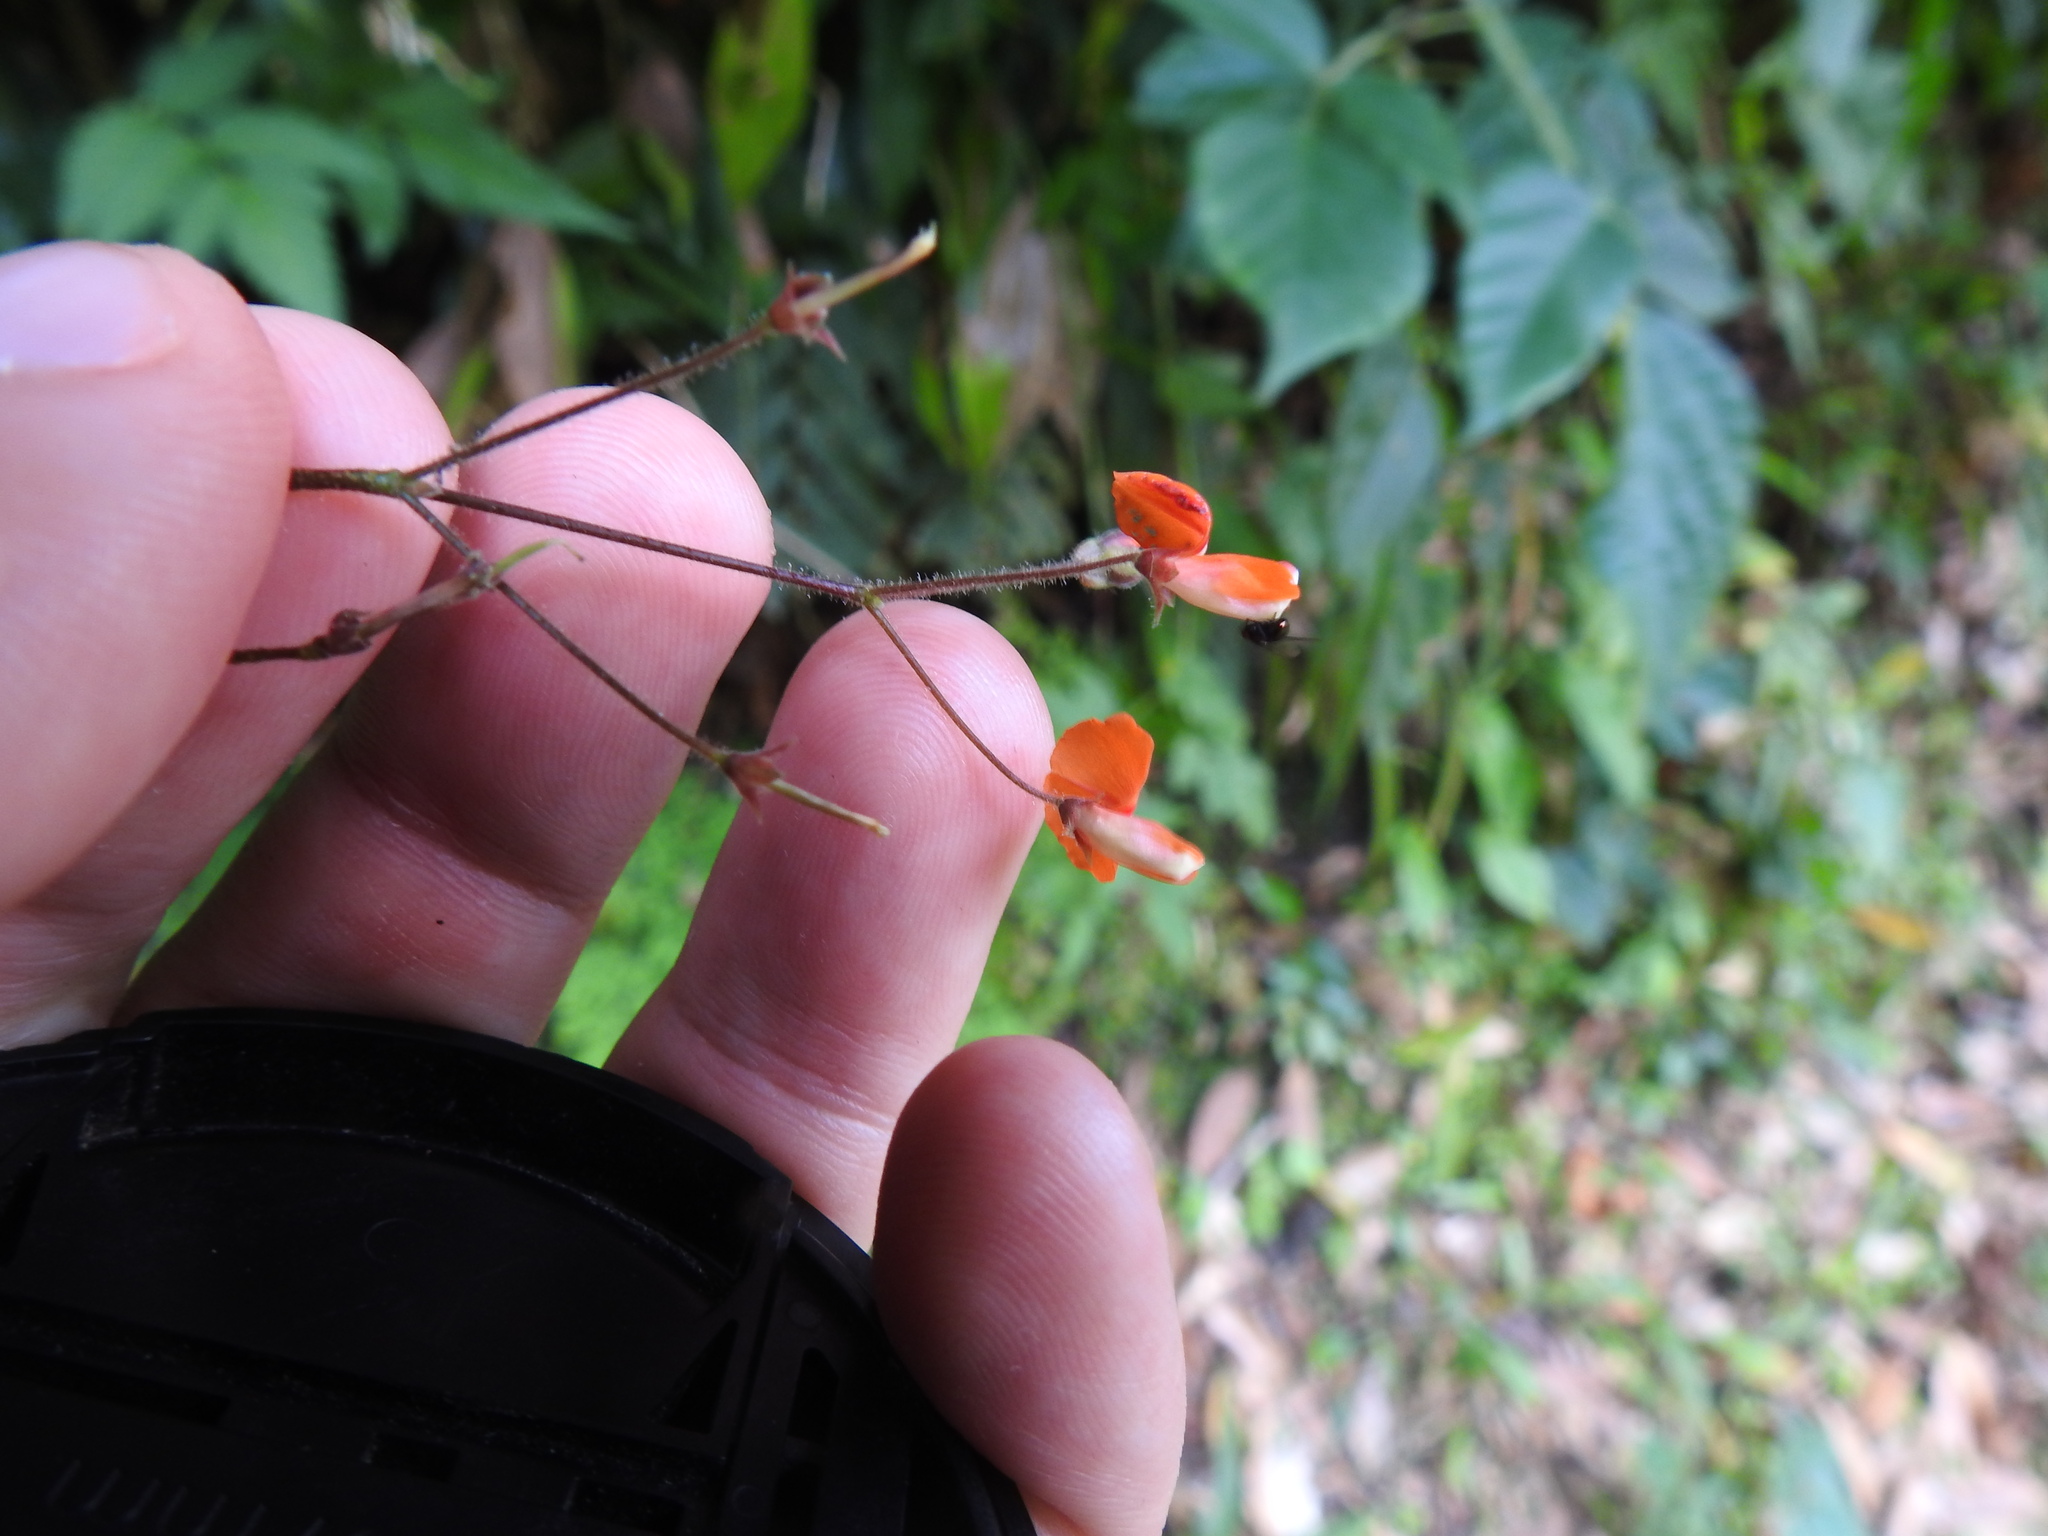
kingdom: Plantae
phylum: Tracheophyta
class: Magnoliopsida
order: Fabales
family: Fabaceae
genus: Hylodesmum
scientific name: Hylodesmum repandum
